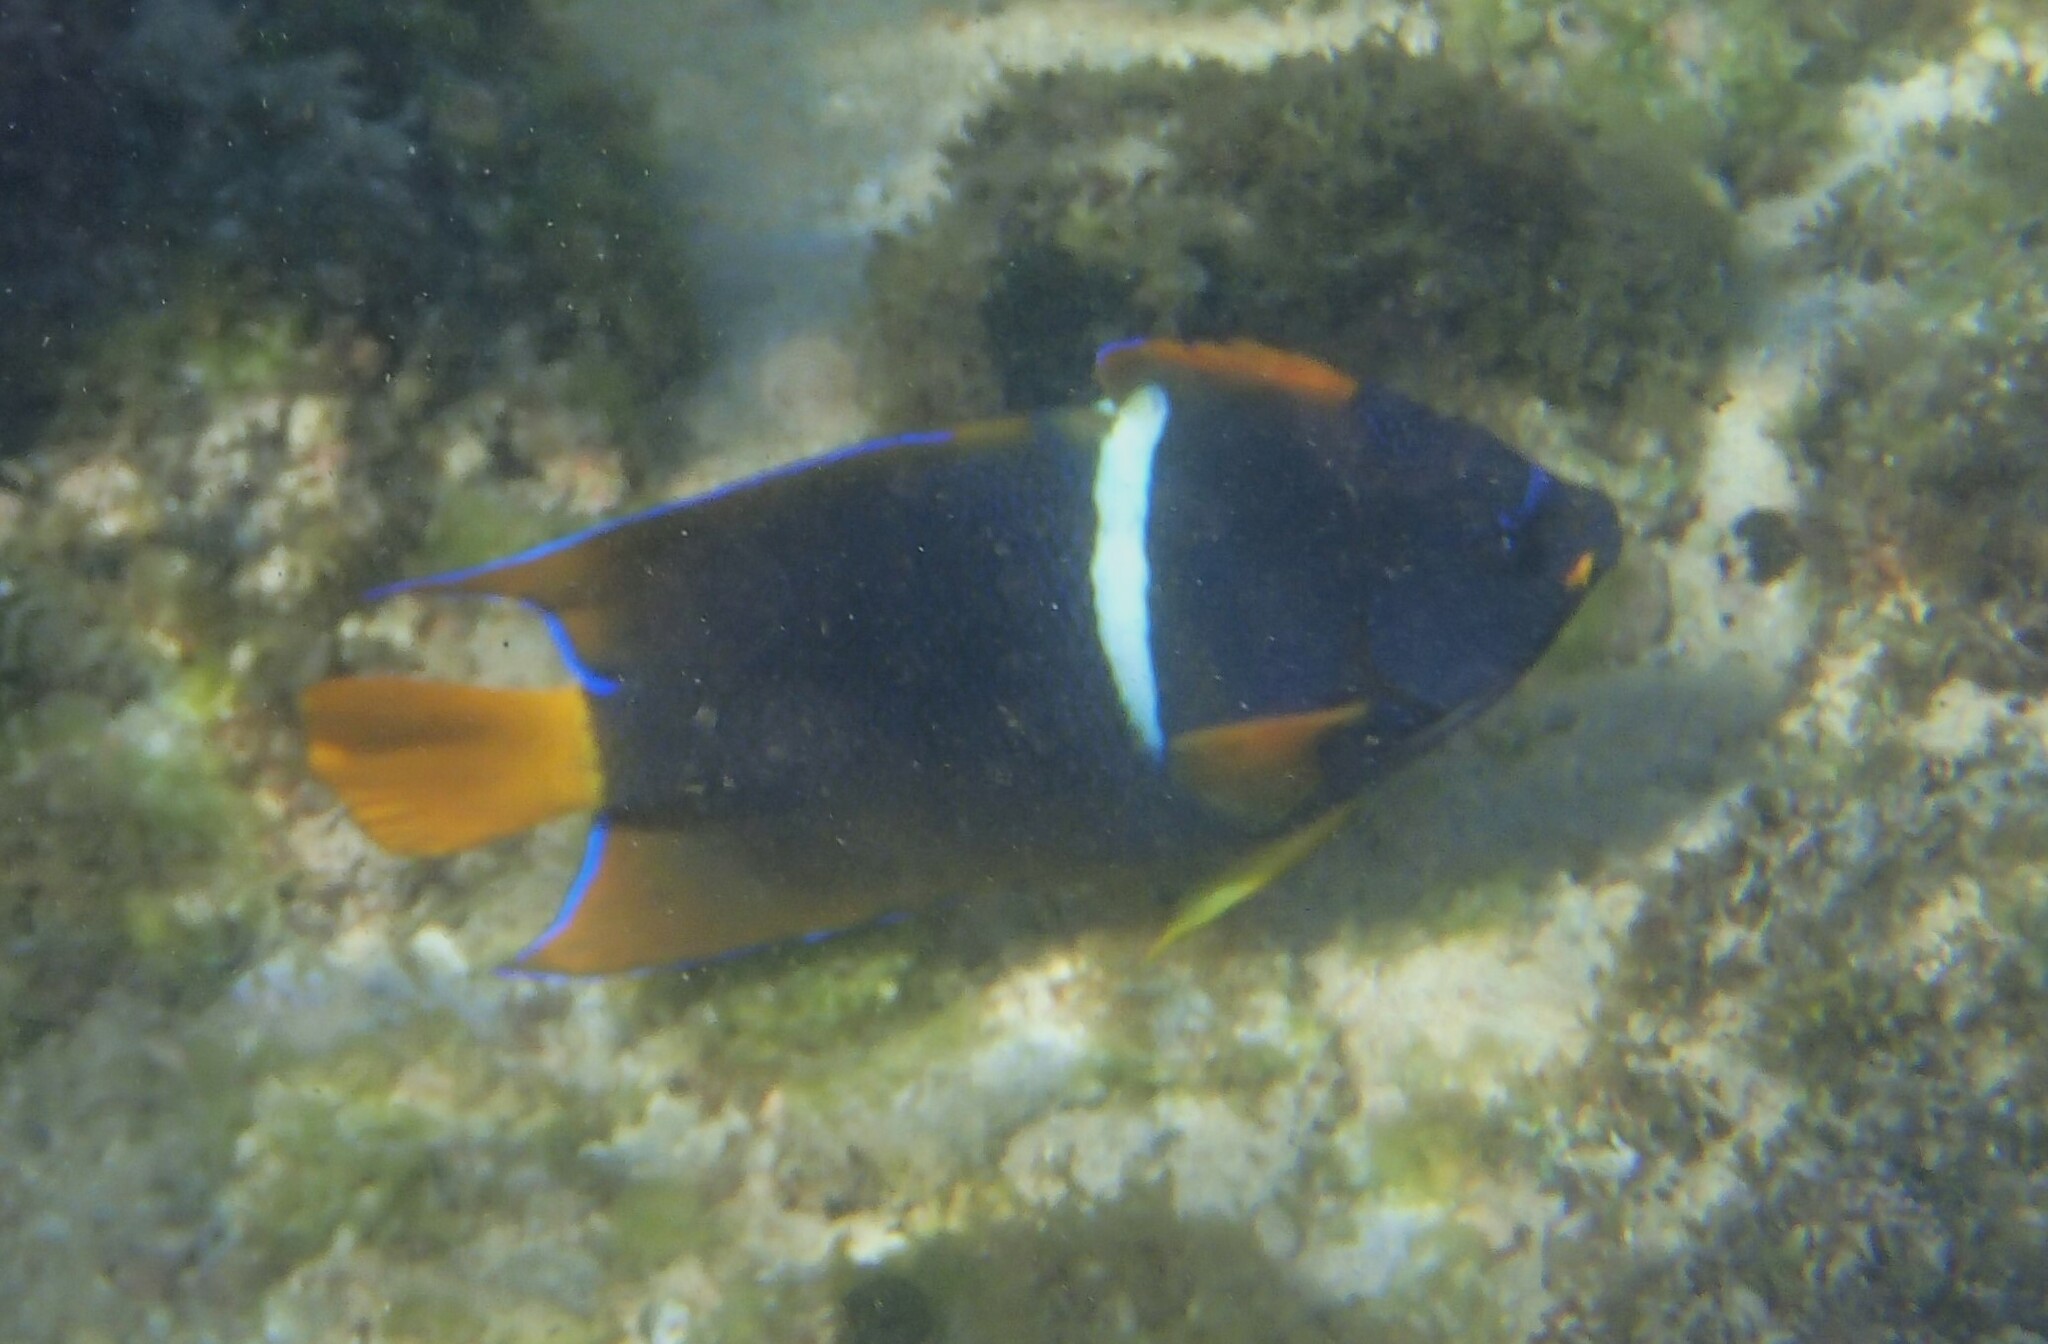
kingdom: Animalia
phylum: Chordata
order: Perciformes
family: Pomacanthidae
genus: Holacanthus
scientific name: Holacanthus passer
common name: King angelfish
